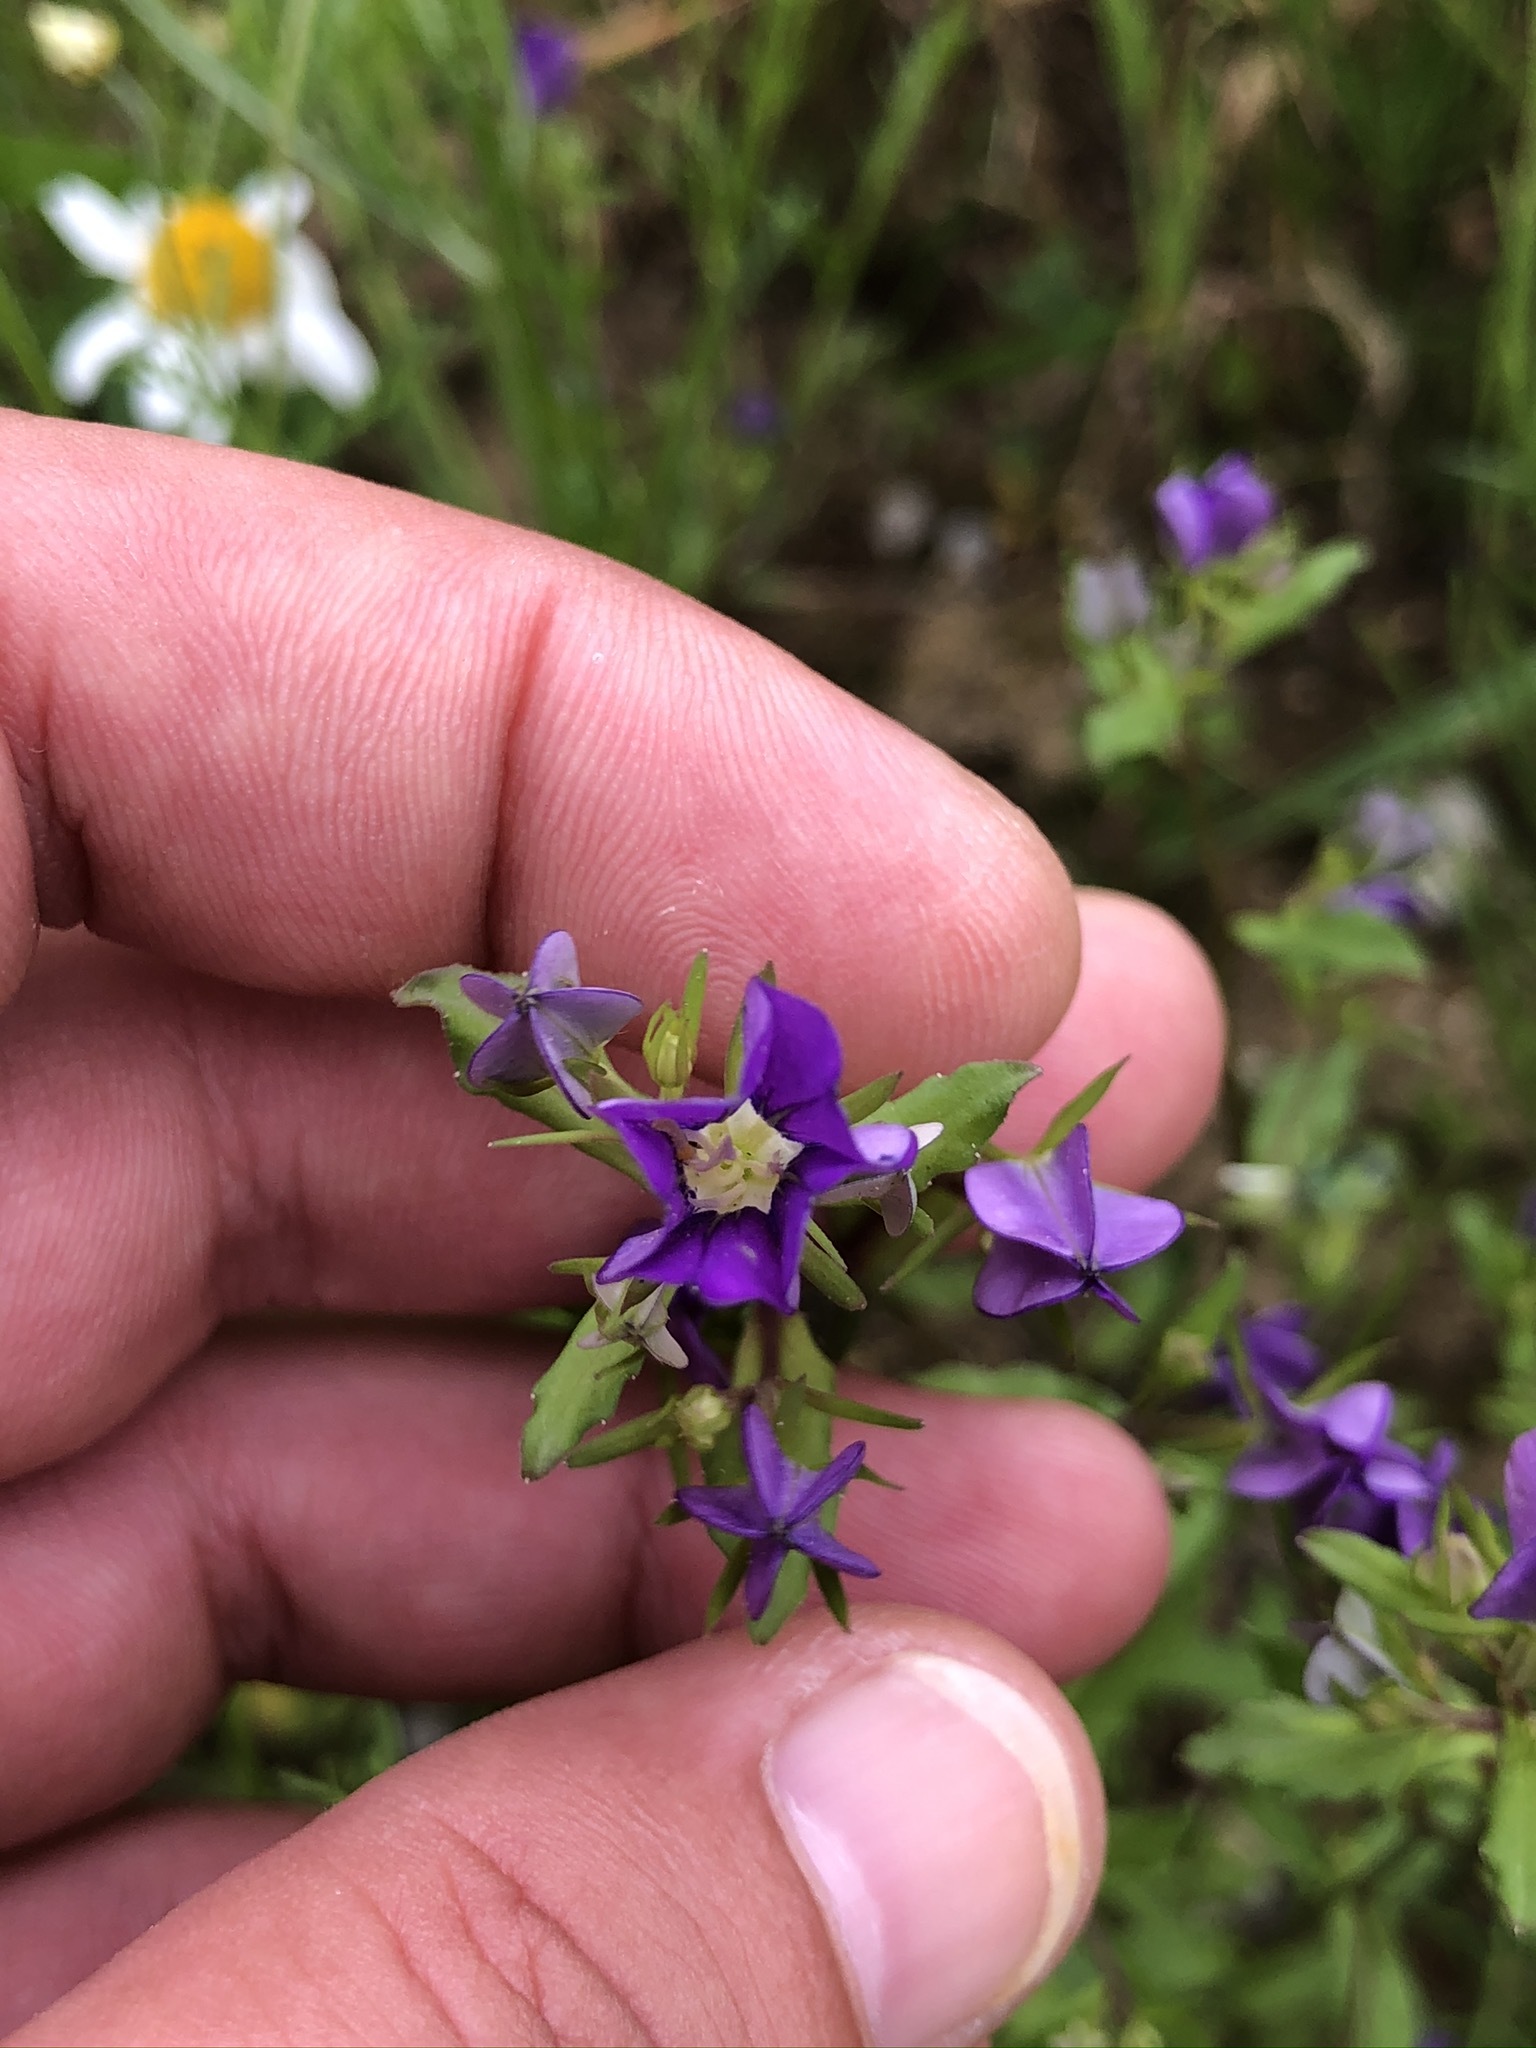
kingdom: Plantae
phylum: Tracheophyta
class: Magnoliopsida
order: Asterales
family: Campanulaceae
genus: Legousia
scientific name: Legousia speculum-veneris
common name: Large venus's-looking-glass
